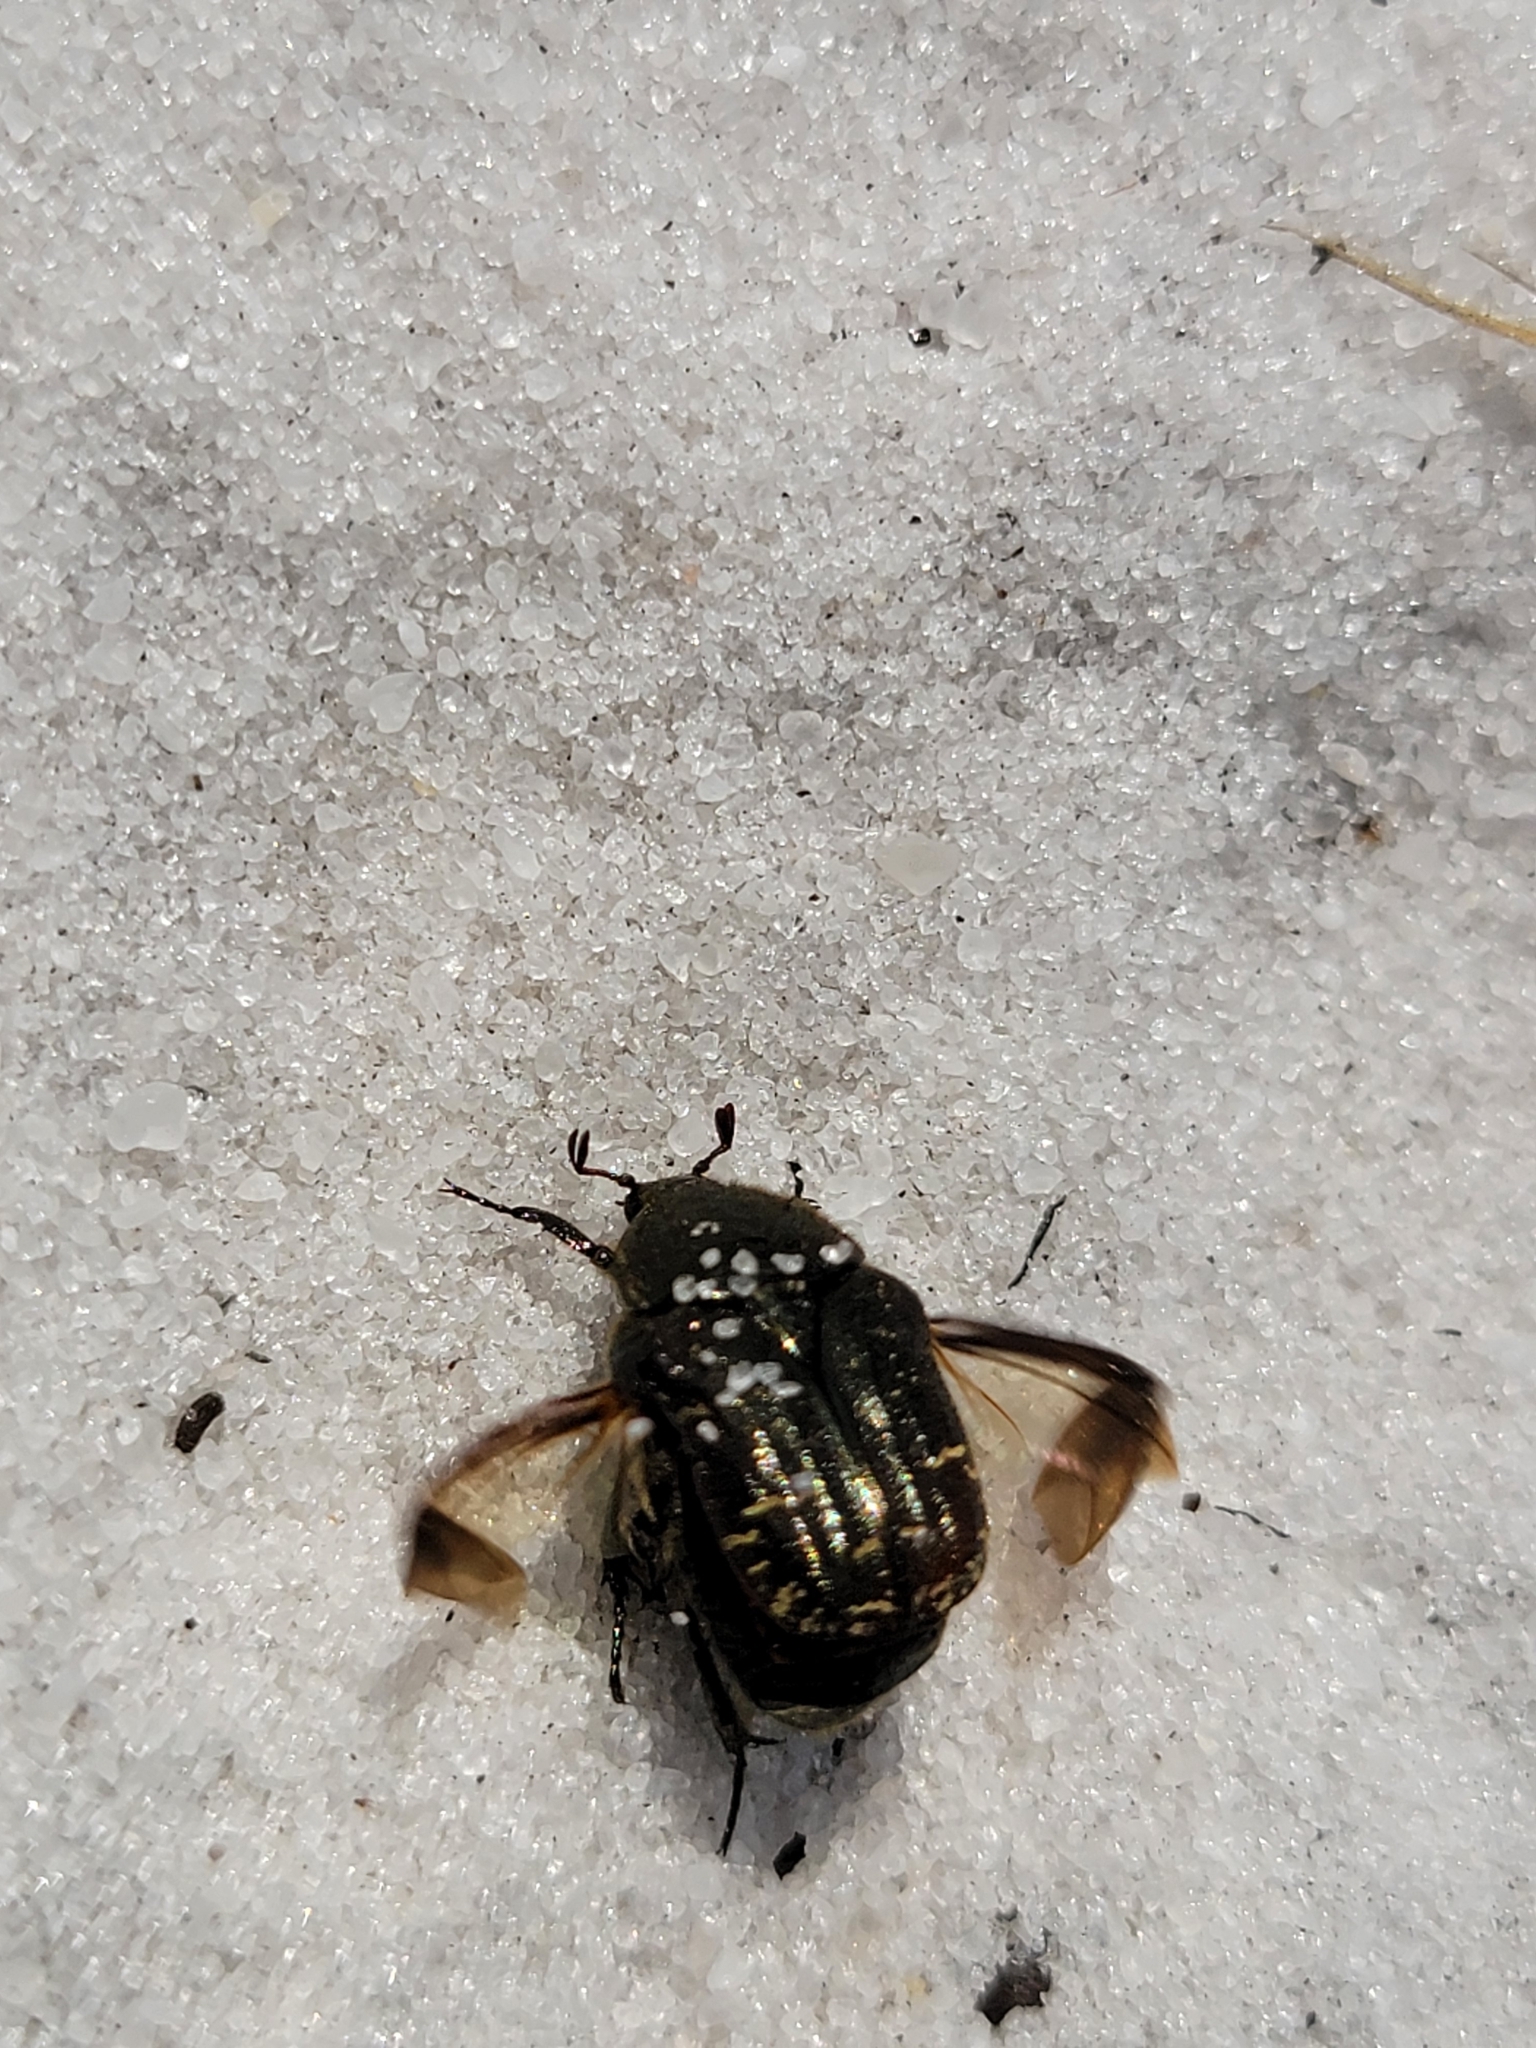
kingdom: Animalia
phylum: Arthropoda
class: Insecta
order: Coleoptera
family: Scarabaeidae
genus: Euphoria
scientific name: Euphoria sepulcralis
